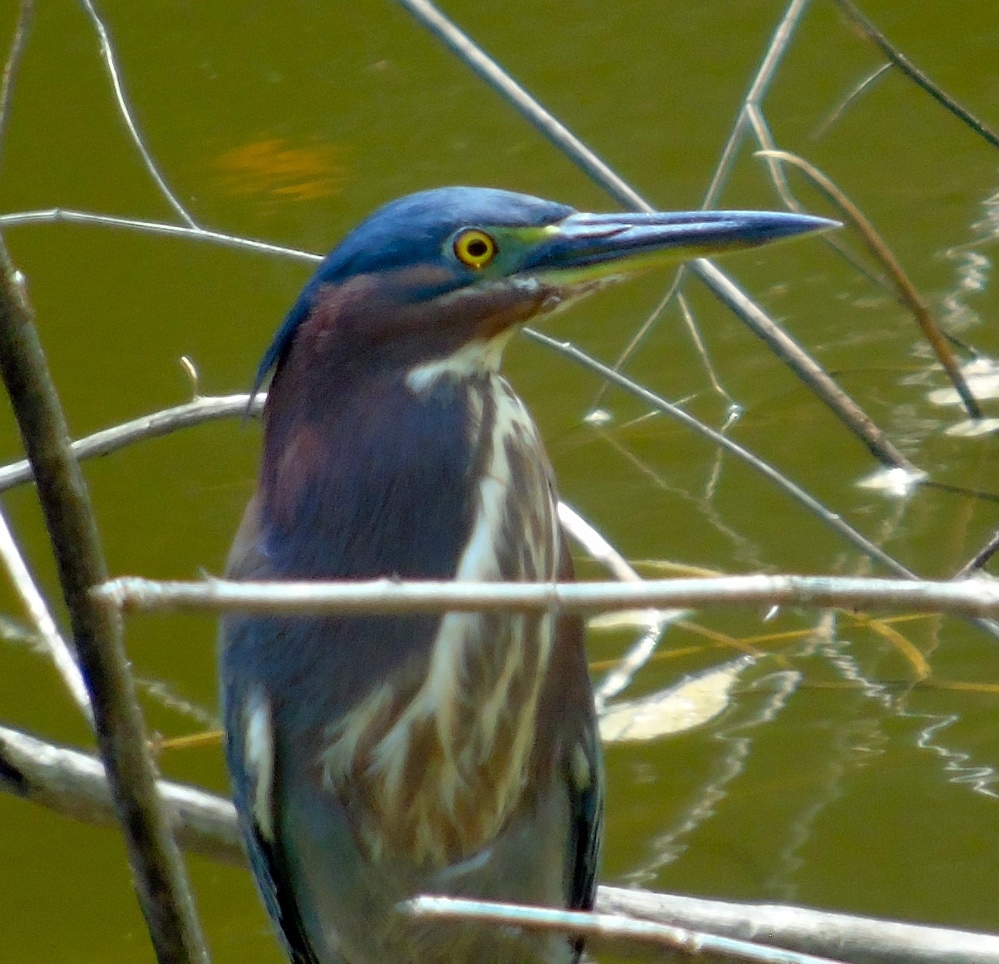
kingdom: Animalia
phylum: Chordata
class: Aves
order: Pelecaniformes
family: Ardeidae
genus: Butorides
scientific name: Butorides virescens
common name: Green heron
